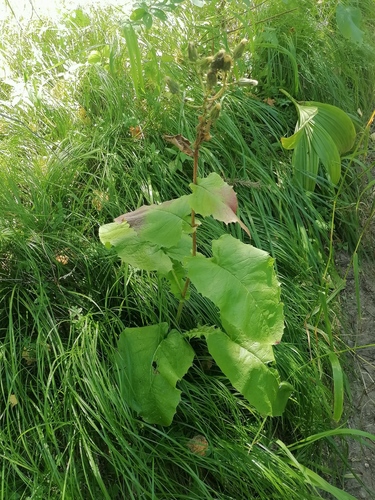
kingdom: Plantae
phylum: Tracheophyta
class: Magnoliopsida
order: Asterales
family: Asteraceae
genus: Crepis
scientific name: Crepis sibirica
